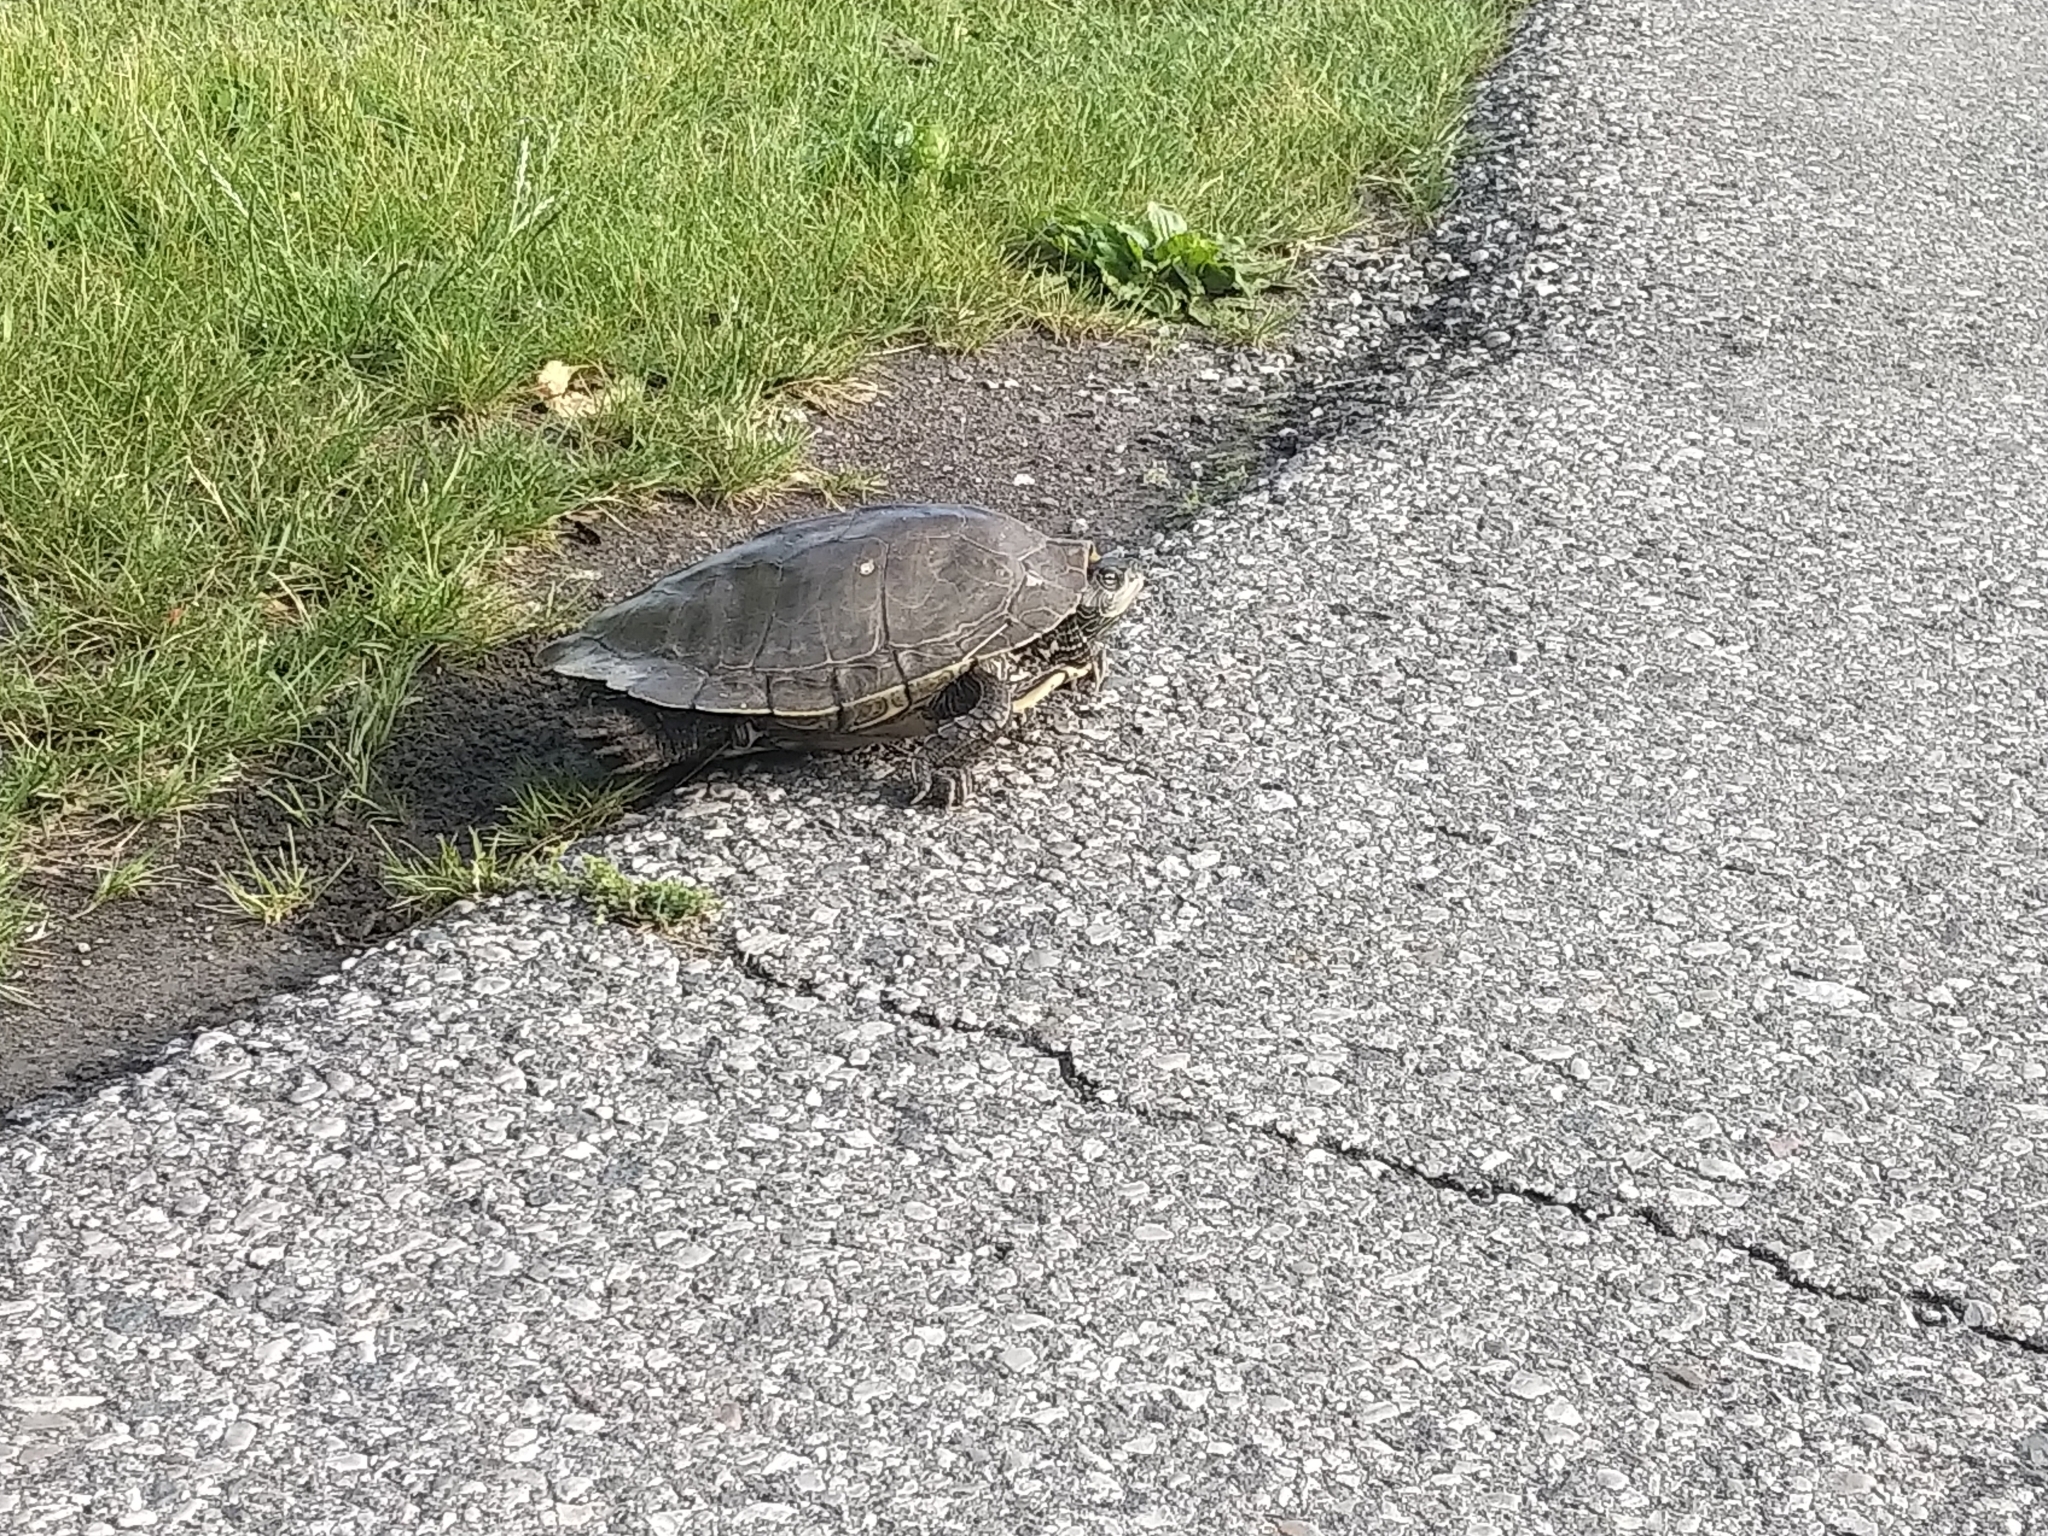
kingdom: Animalia
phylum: Chordata
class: Testudines
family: Emydidae
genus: Graptemys
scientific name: Graptemys geographica
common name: Common map turtle
